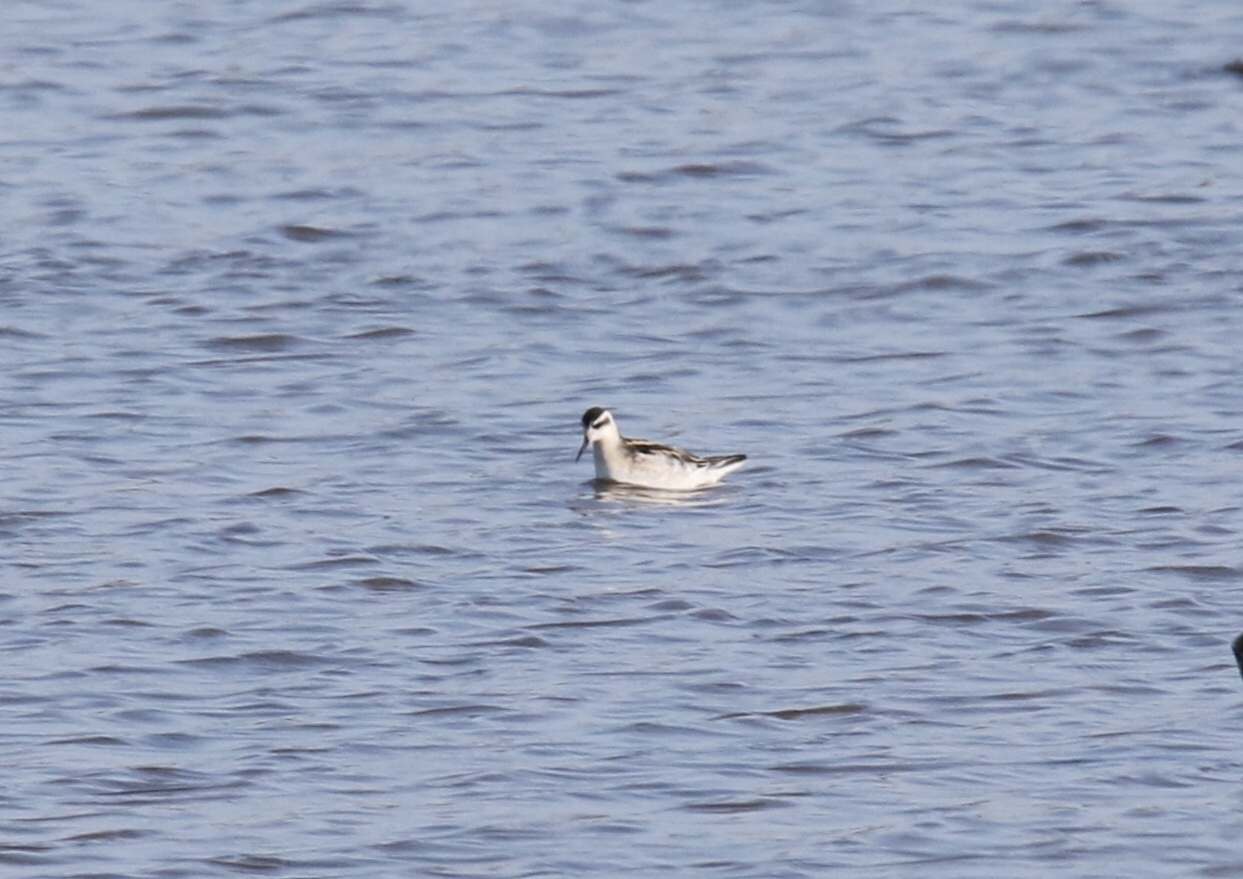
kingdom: Animalia
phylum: Chordata
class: Aves
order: Charadriiformes
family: Scolopacidae
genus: Phalaropus
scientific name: Phalaropus lobatus
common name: Red-necked phalarope
